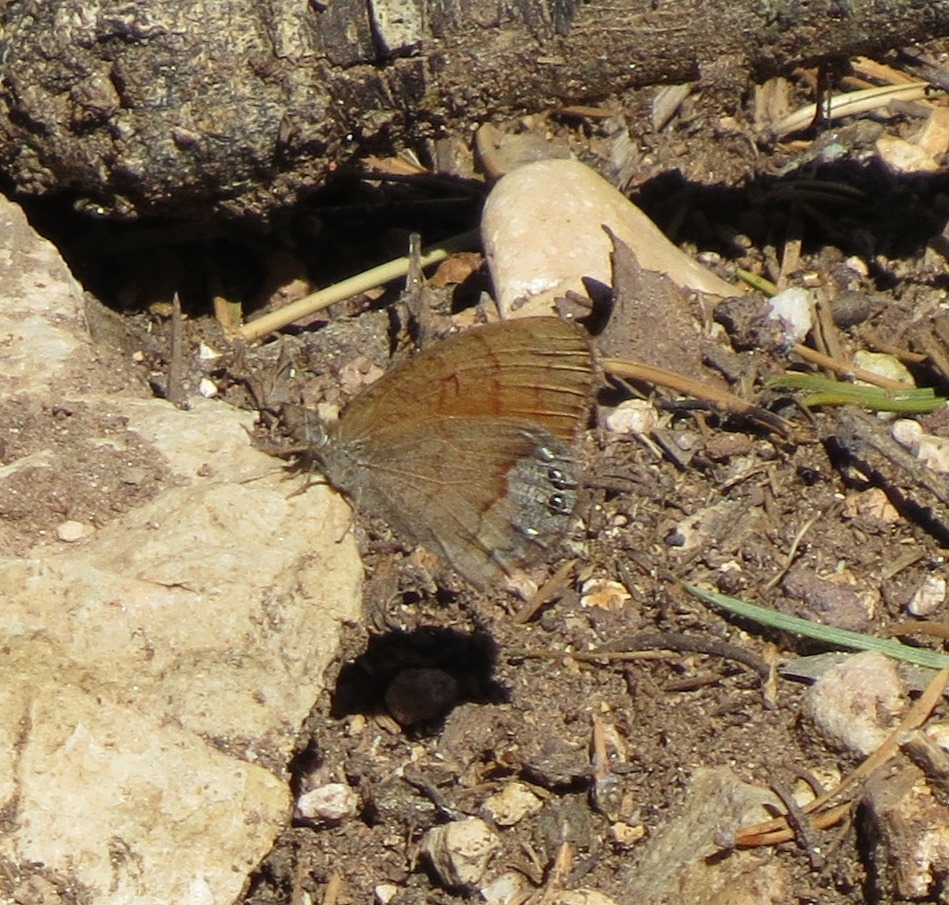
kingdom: Animalia
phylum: Arthropoda
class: Insecta
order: Lepidoptera
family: Nymphalidae
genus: Euptychia
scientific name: Euptychia Cyllopsis pertepida
